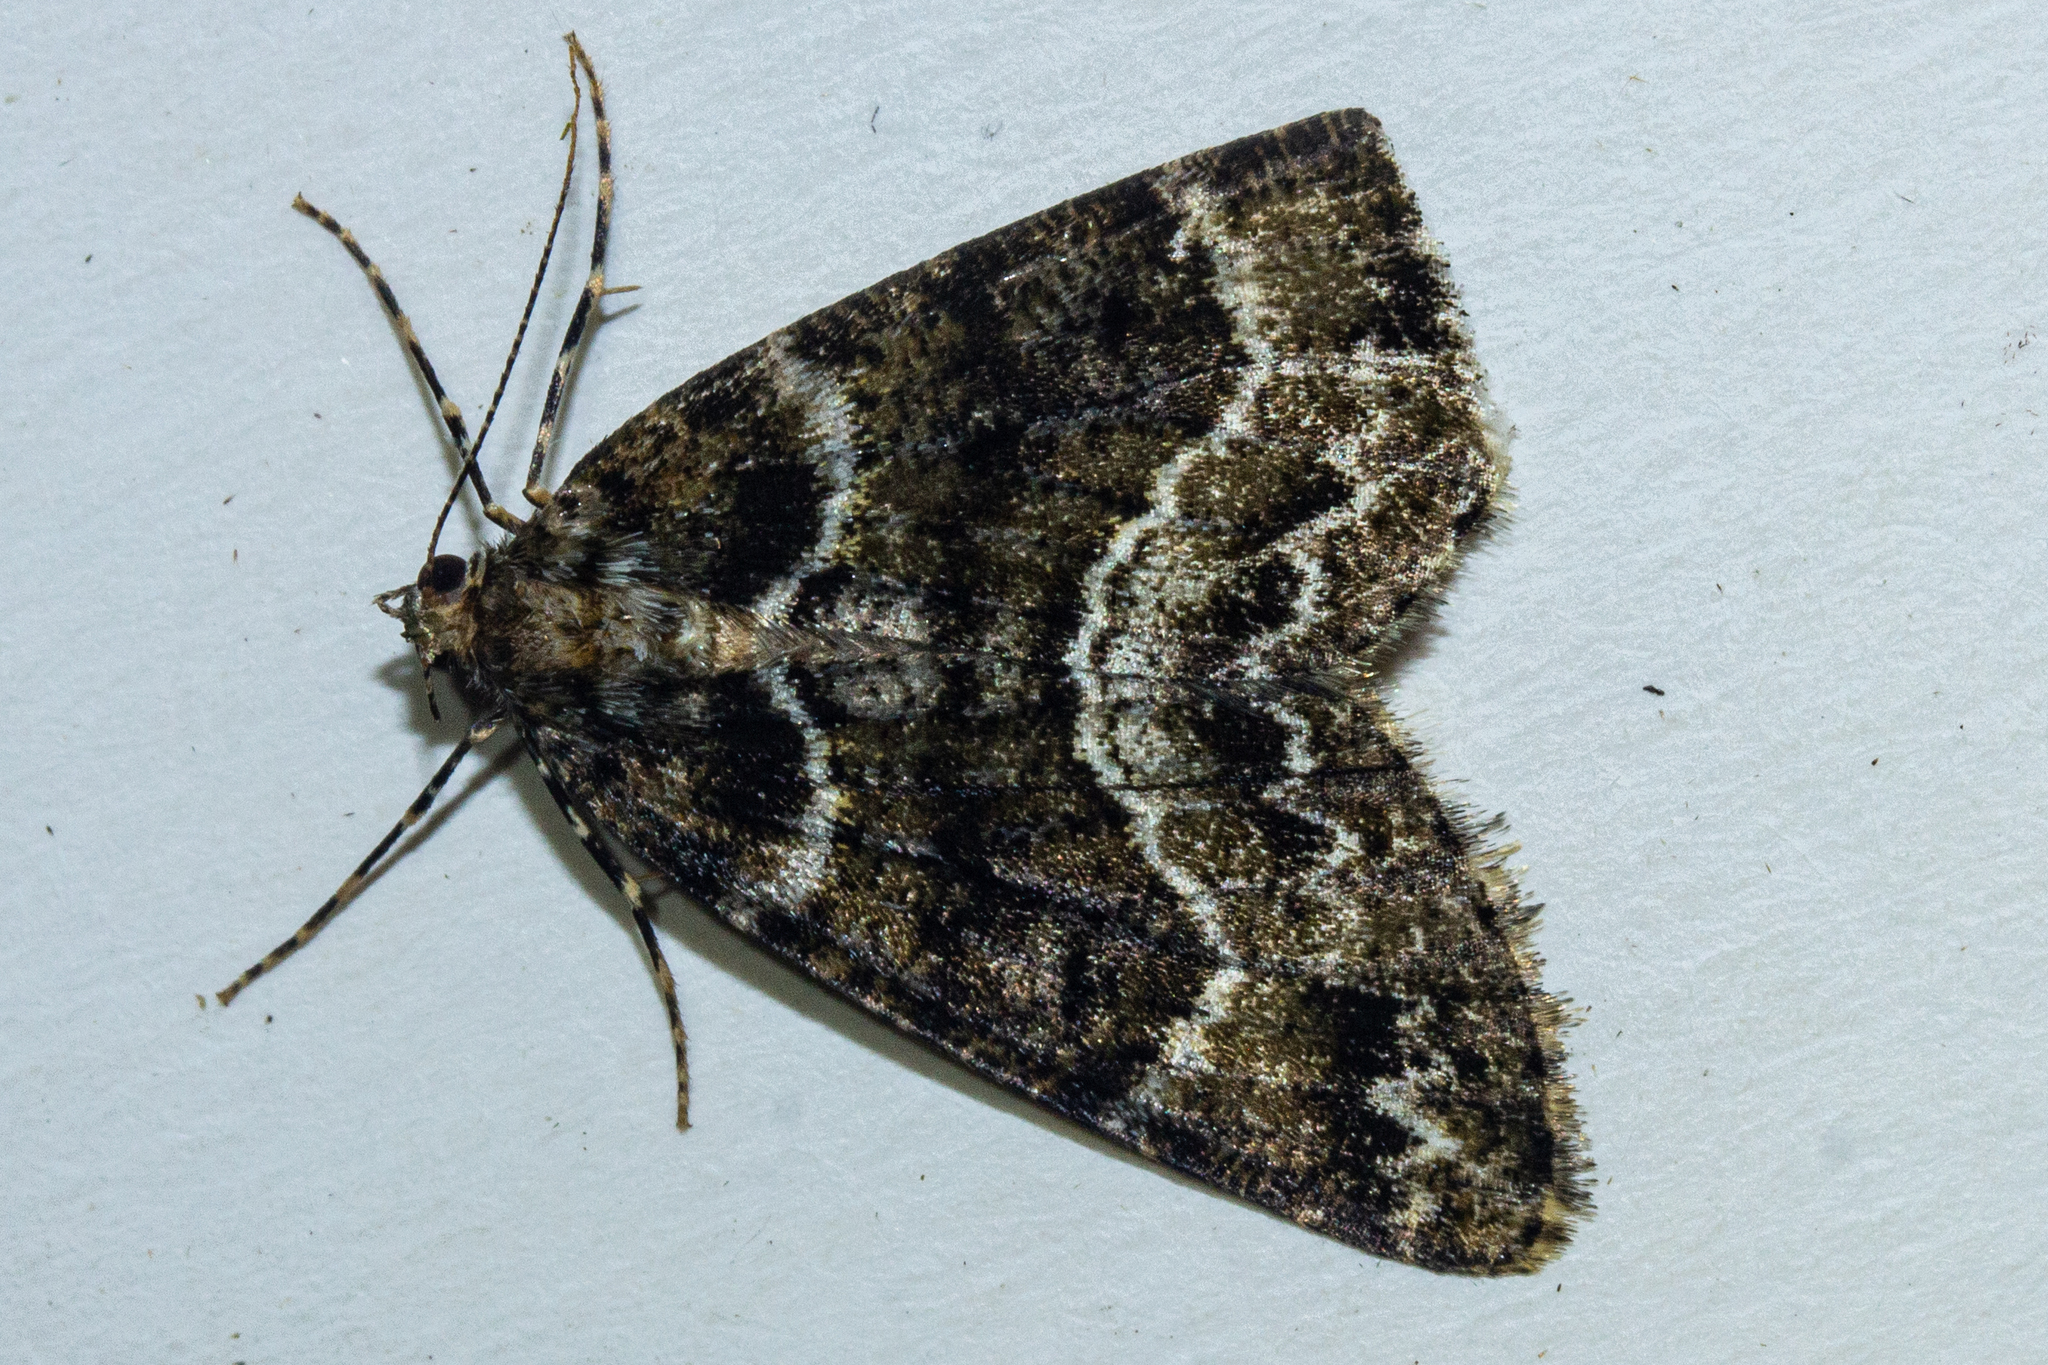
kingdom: Animalia
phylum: Arthropoda
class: Insecta
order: Lepidoptera
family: Geometridae
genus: Pseudocoremia
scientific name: Pseudocoremia productata
